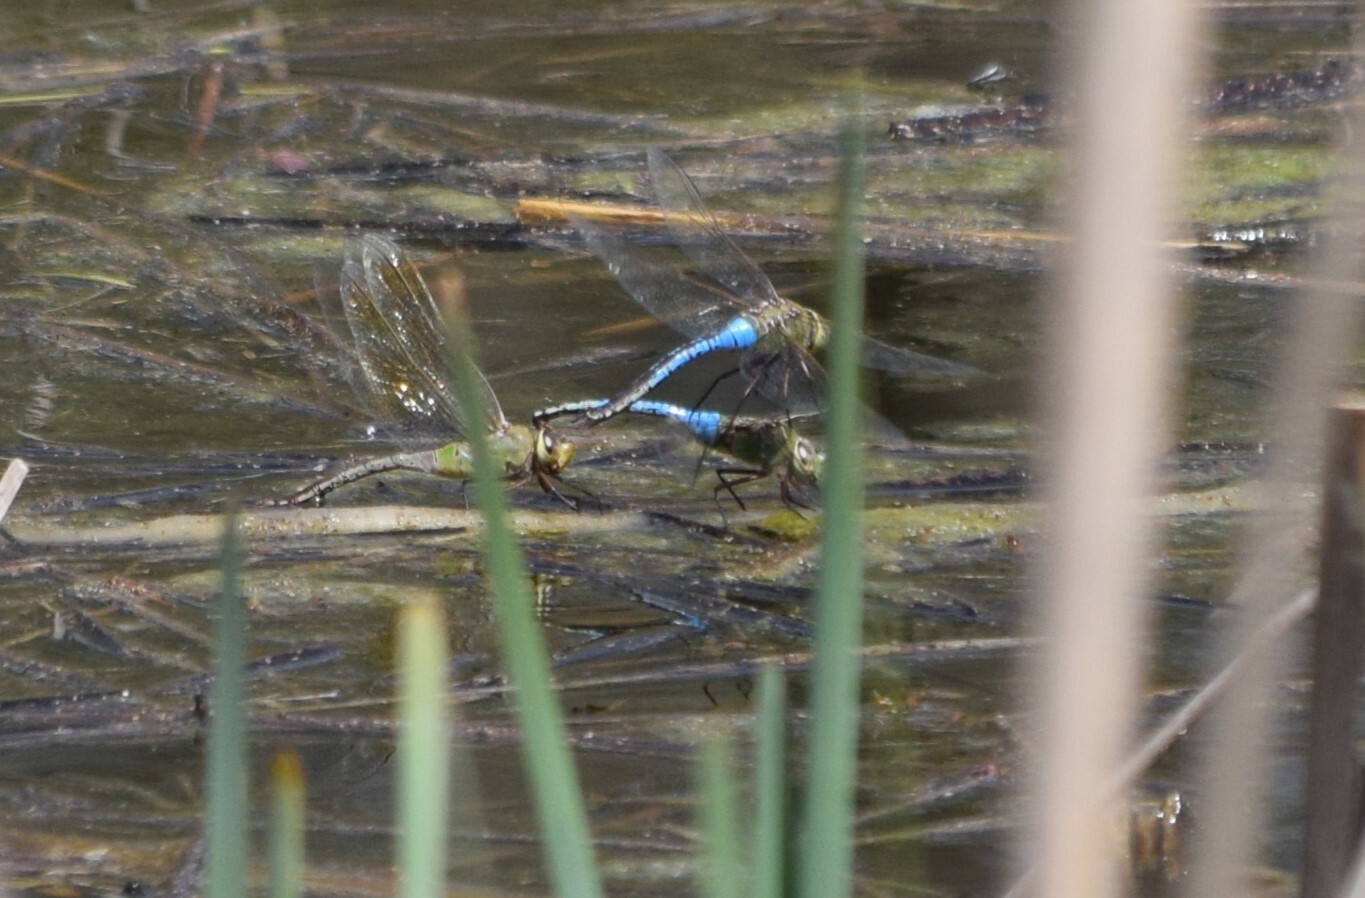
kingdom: Animalia
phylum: Arthropoda
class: Insecta
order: Odonata
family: Aeshnidae
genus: Anax
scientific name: Anax junius
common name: Common green darner
